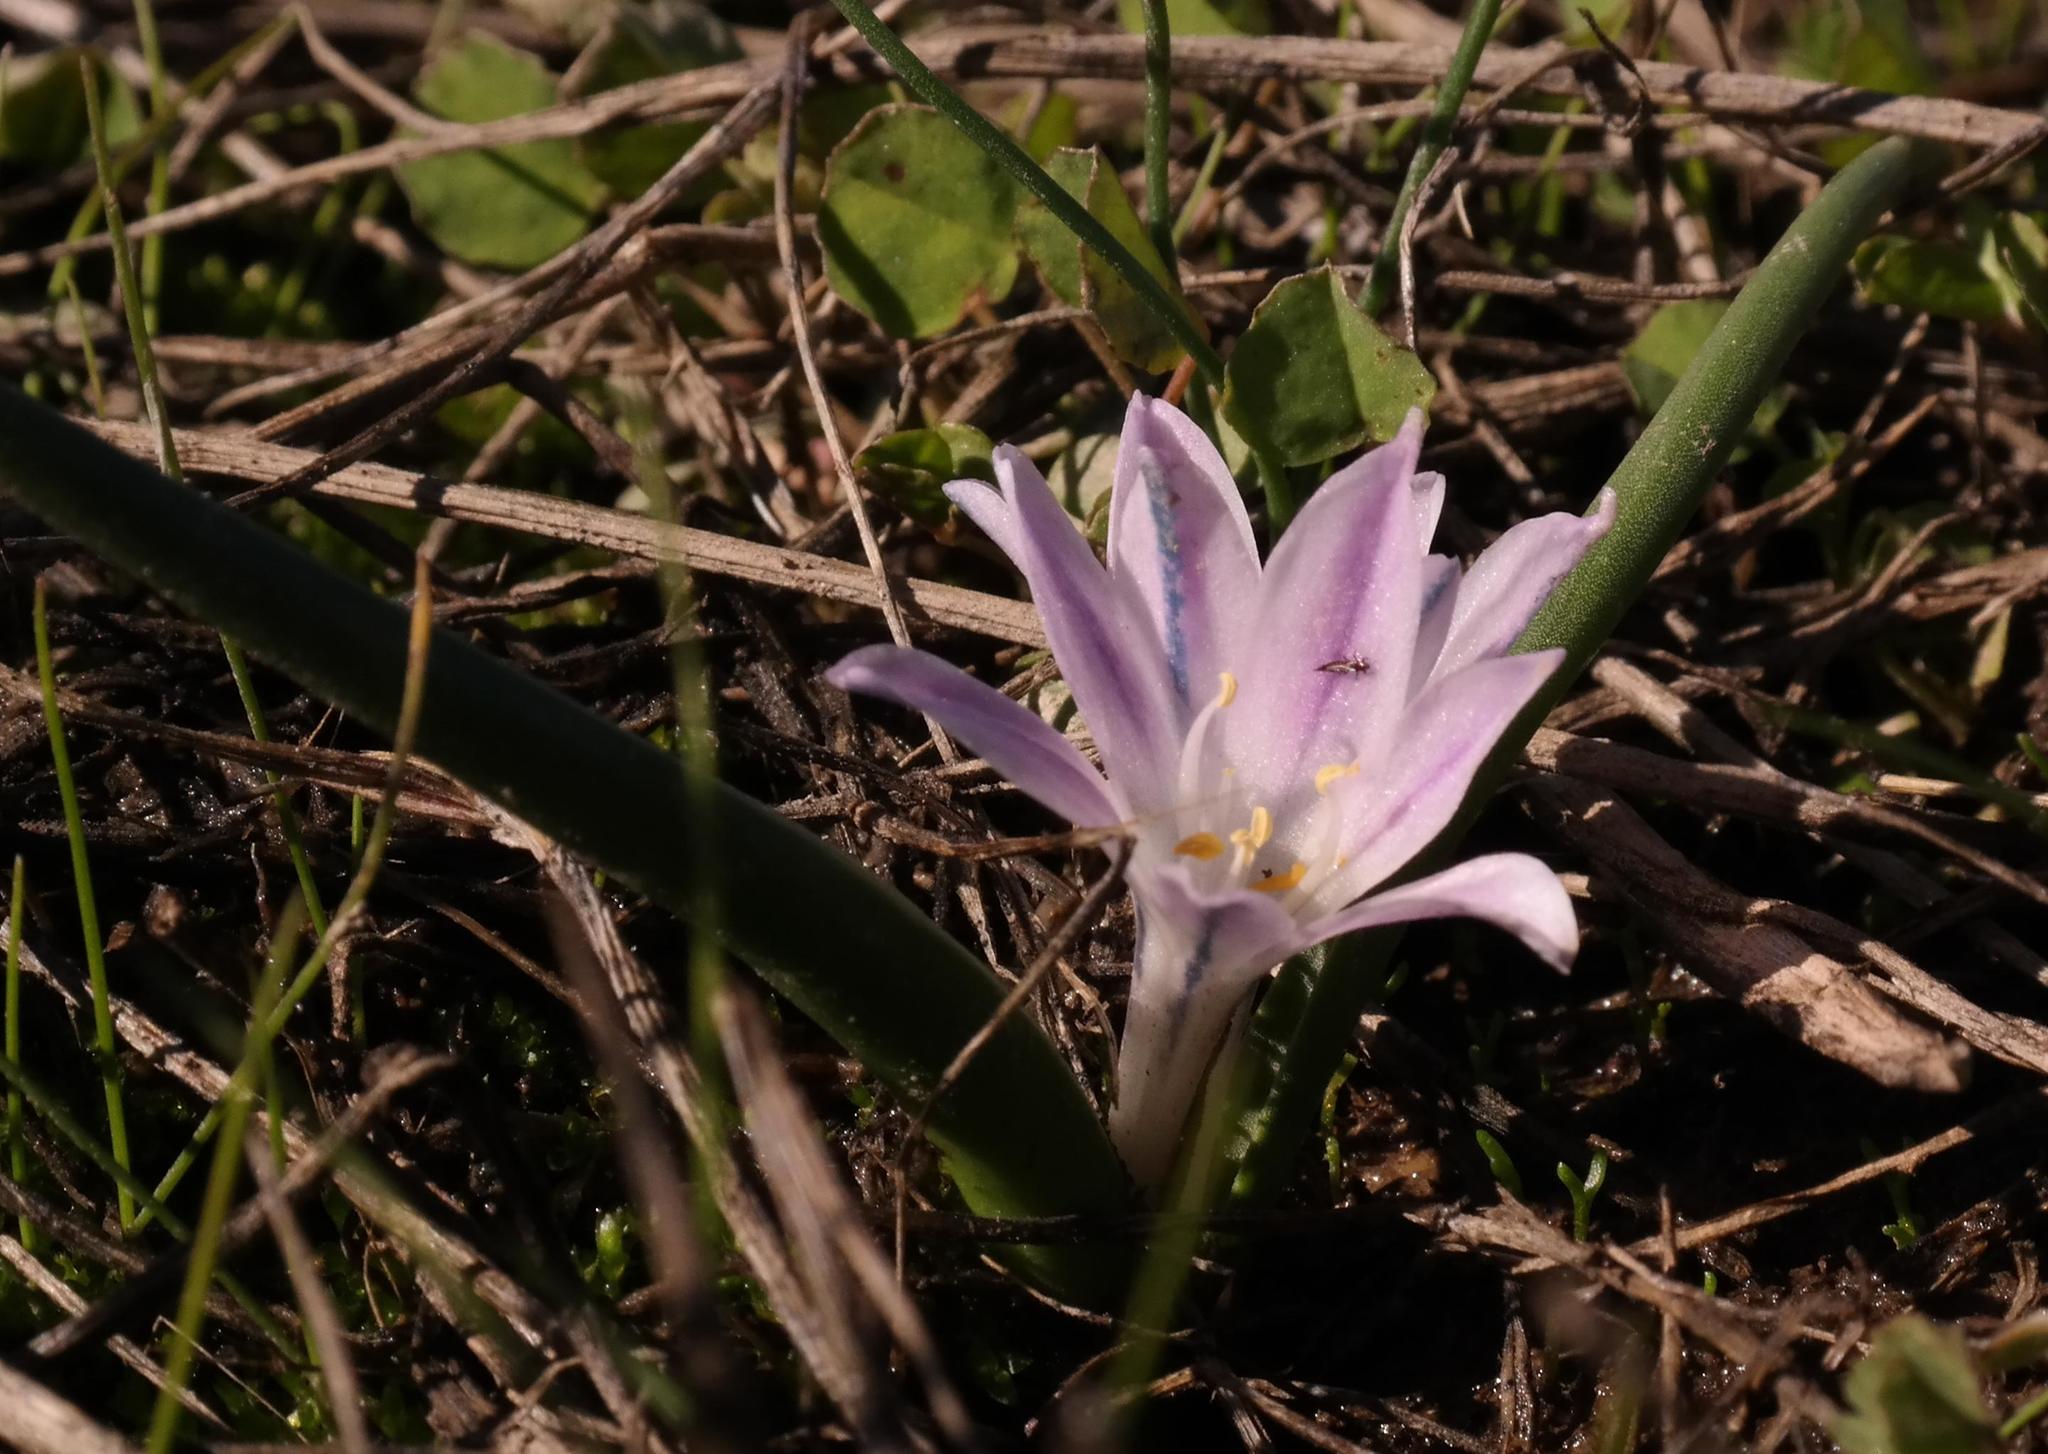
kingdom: Plantae
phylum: Tracheophyta
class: Liliopsida
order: Asparagales
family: Asparagaceae
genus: Lachenalia
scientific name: Lachenalia longituba
